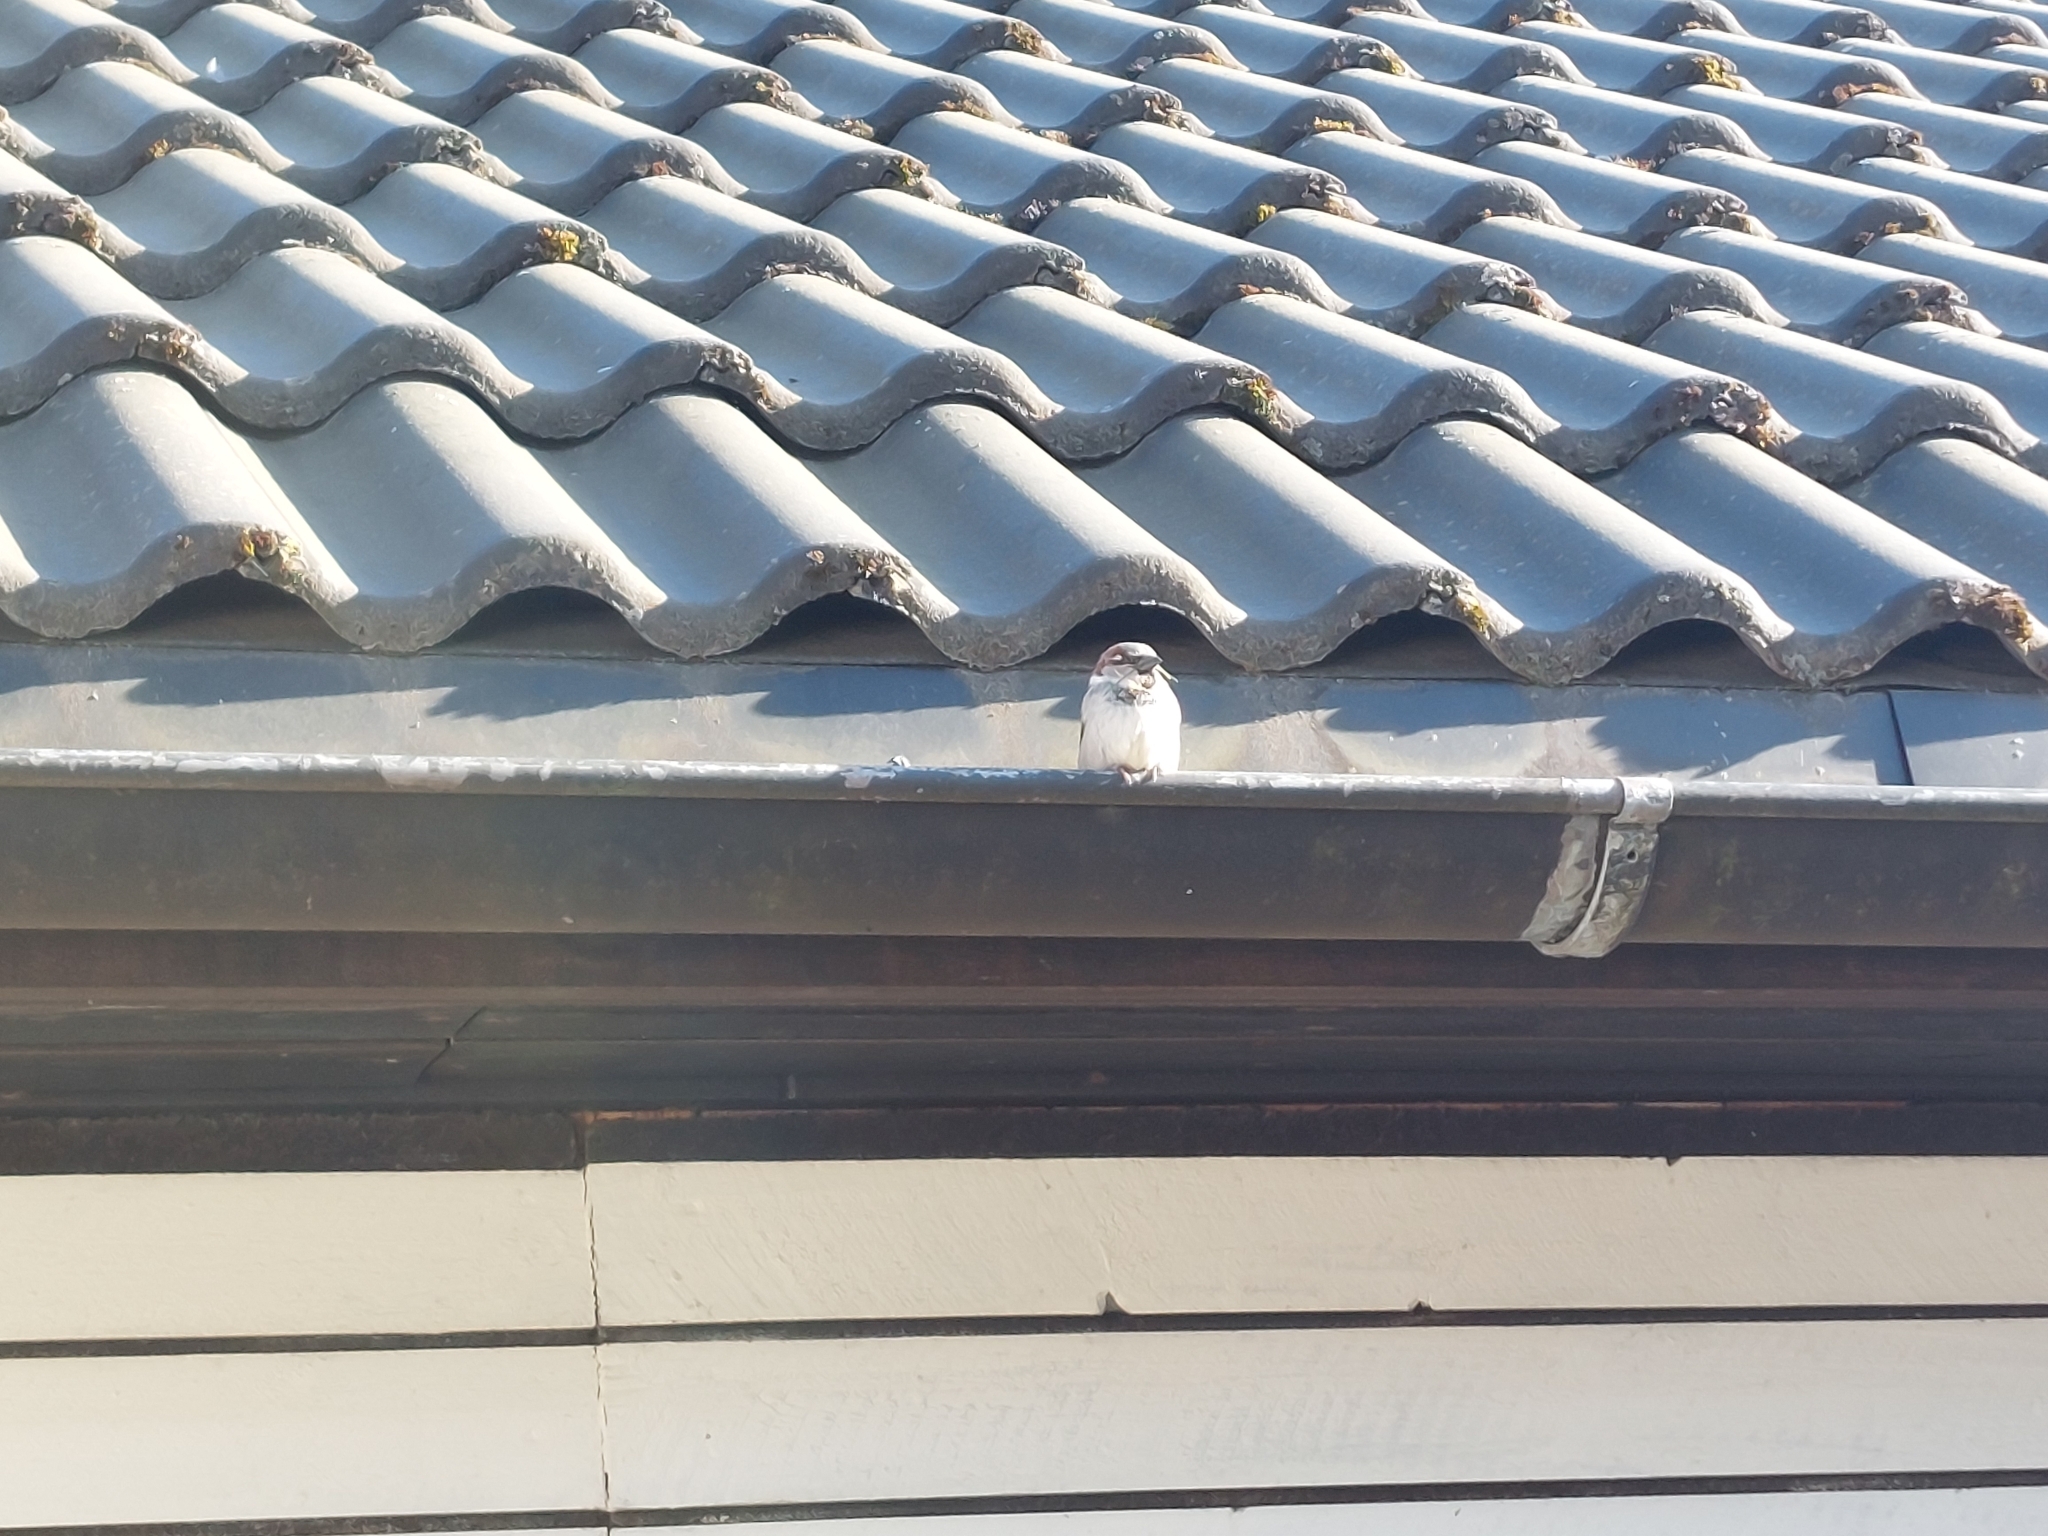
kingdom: Animalia
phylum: Chordata
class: Aves
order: Passeriformes
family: Passeridae
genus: Passer
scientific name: Passer domesticus
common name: House sparrow
